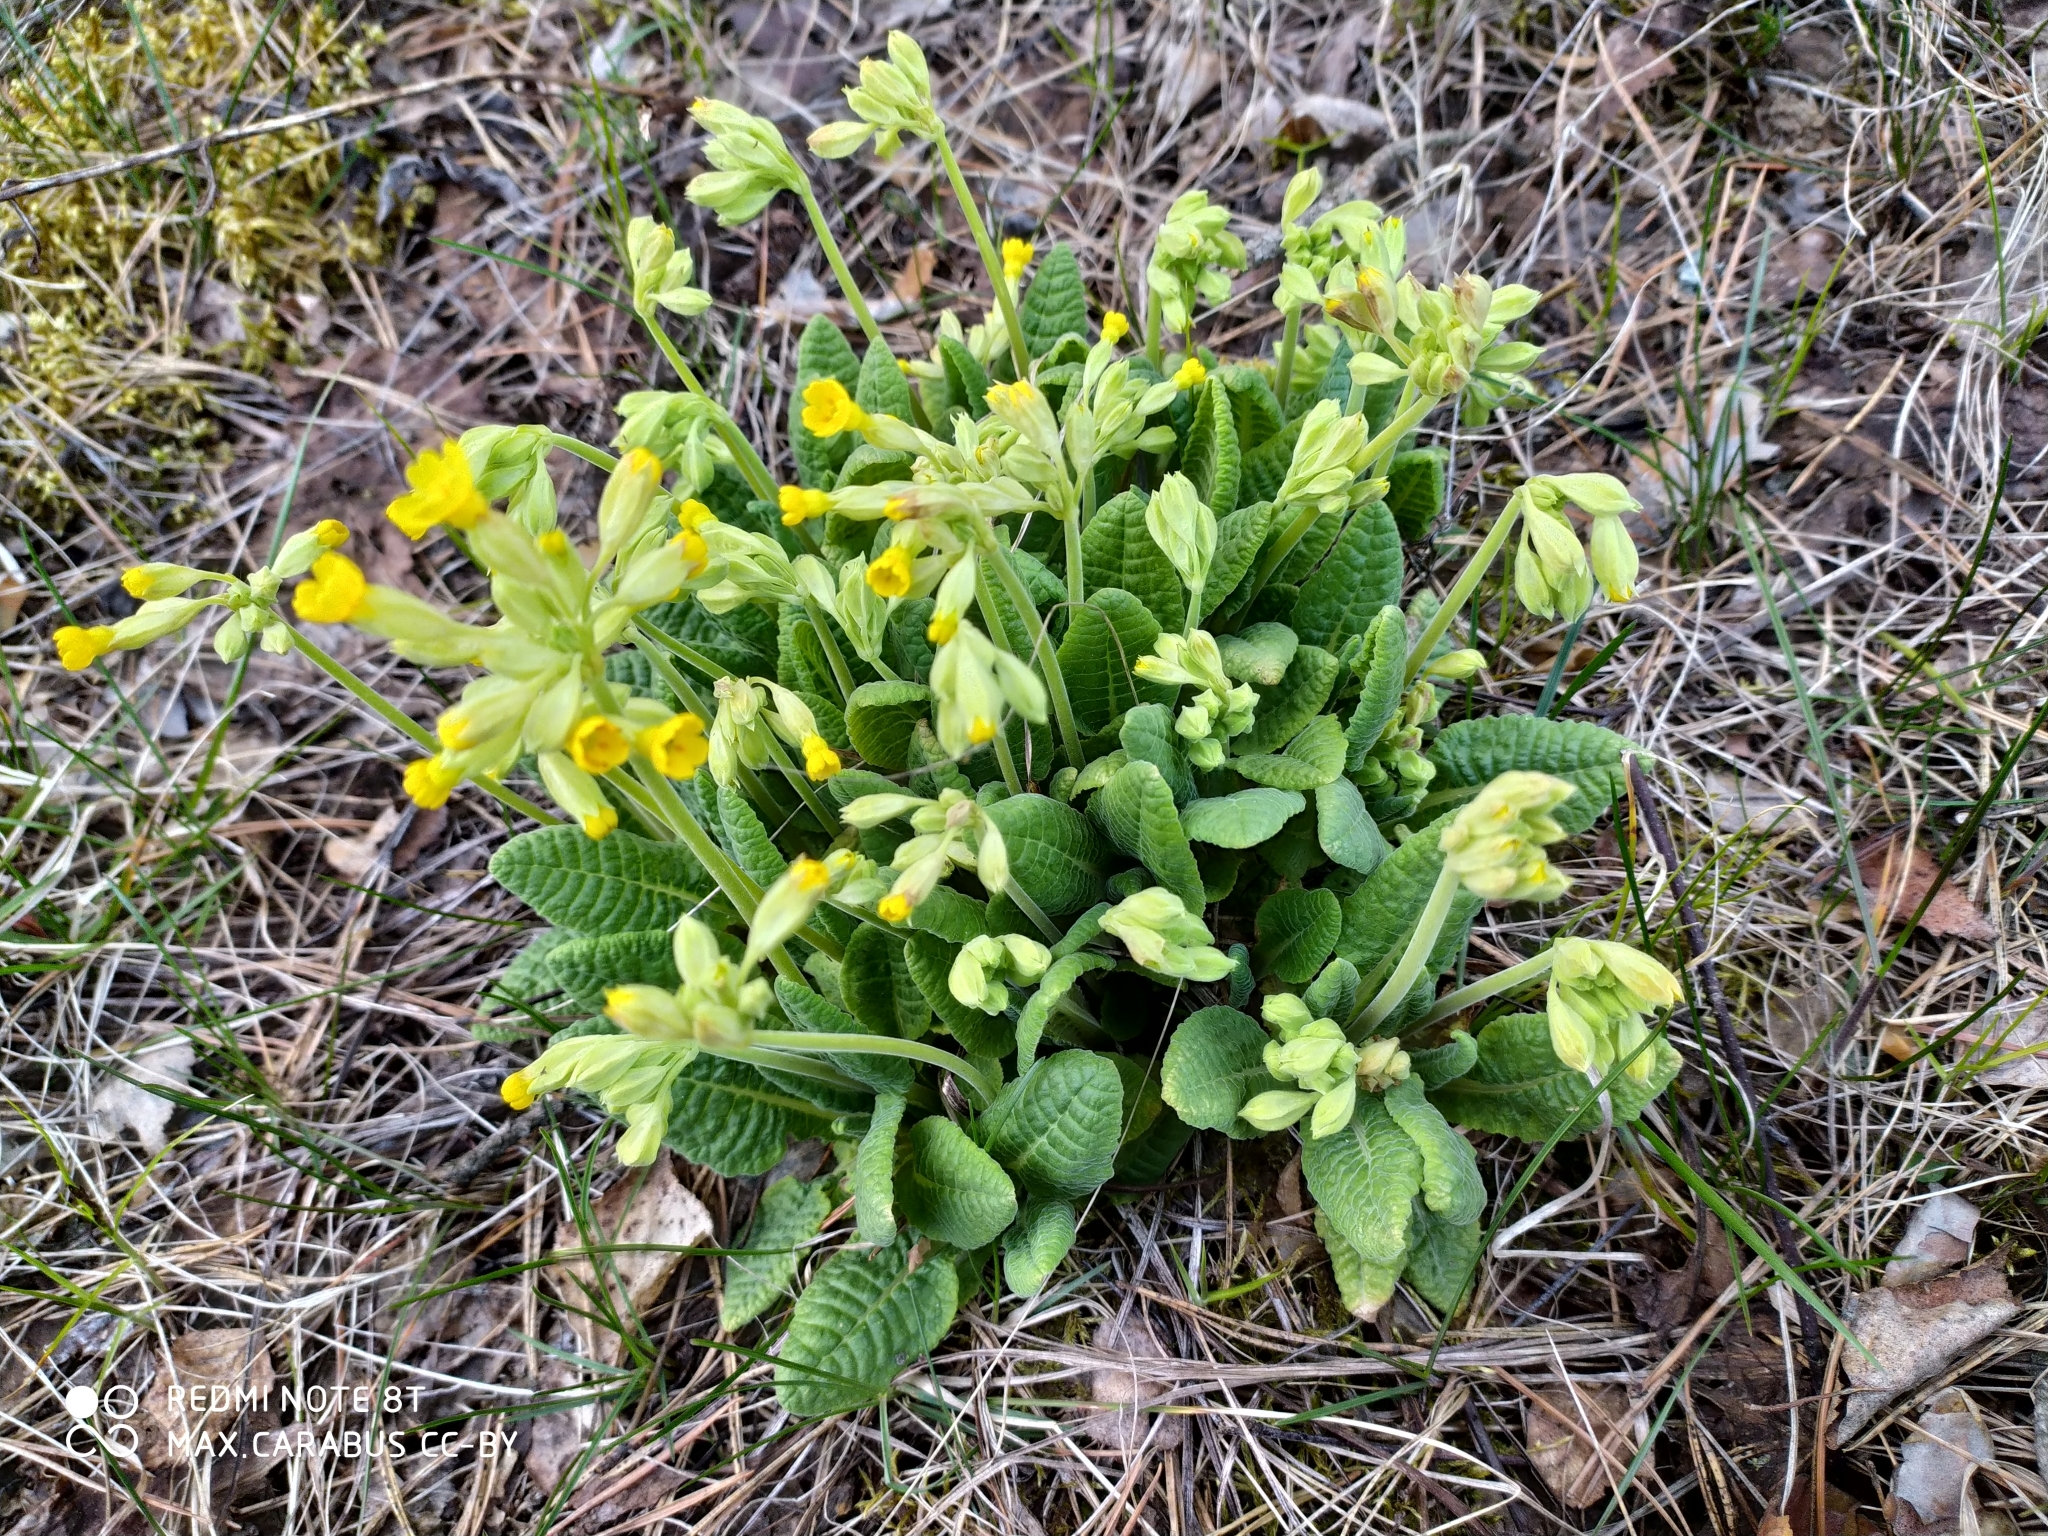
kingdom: Plantae
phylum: Tracheophyta
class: Magnoliopsida
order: Ericales
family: Primulaceae
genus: Primula
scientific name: Primula veris
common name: Cowslip
